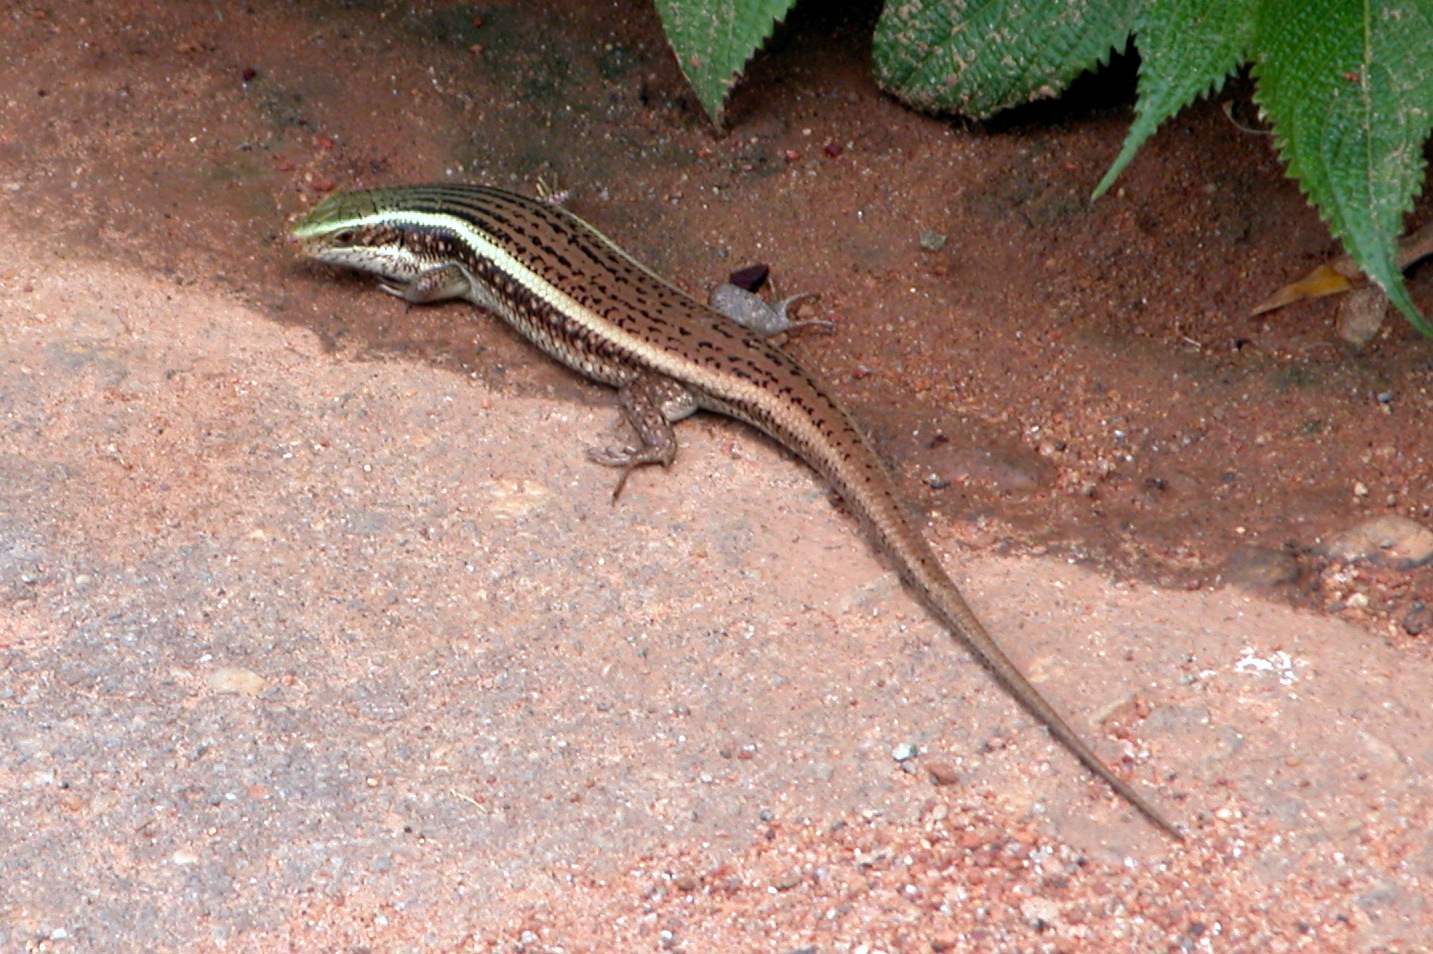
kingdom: Animalia
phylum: Chordata
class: Squamata
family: Scincidae
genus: Eutropis
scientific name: Eutropis carinata
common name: Keeled indian mabuya
